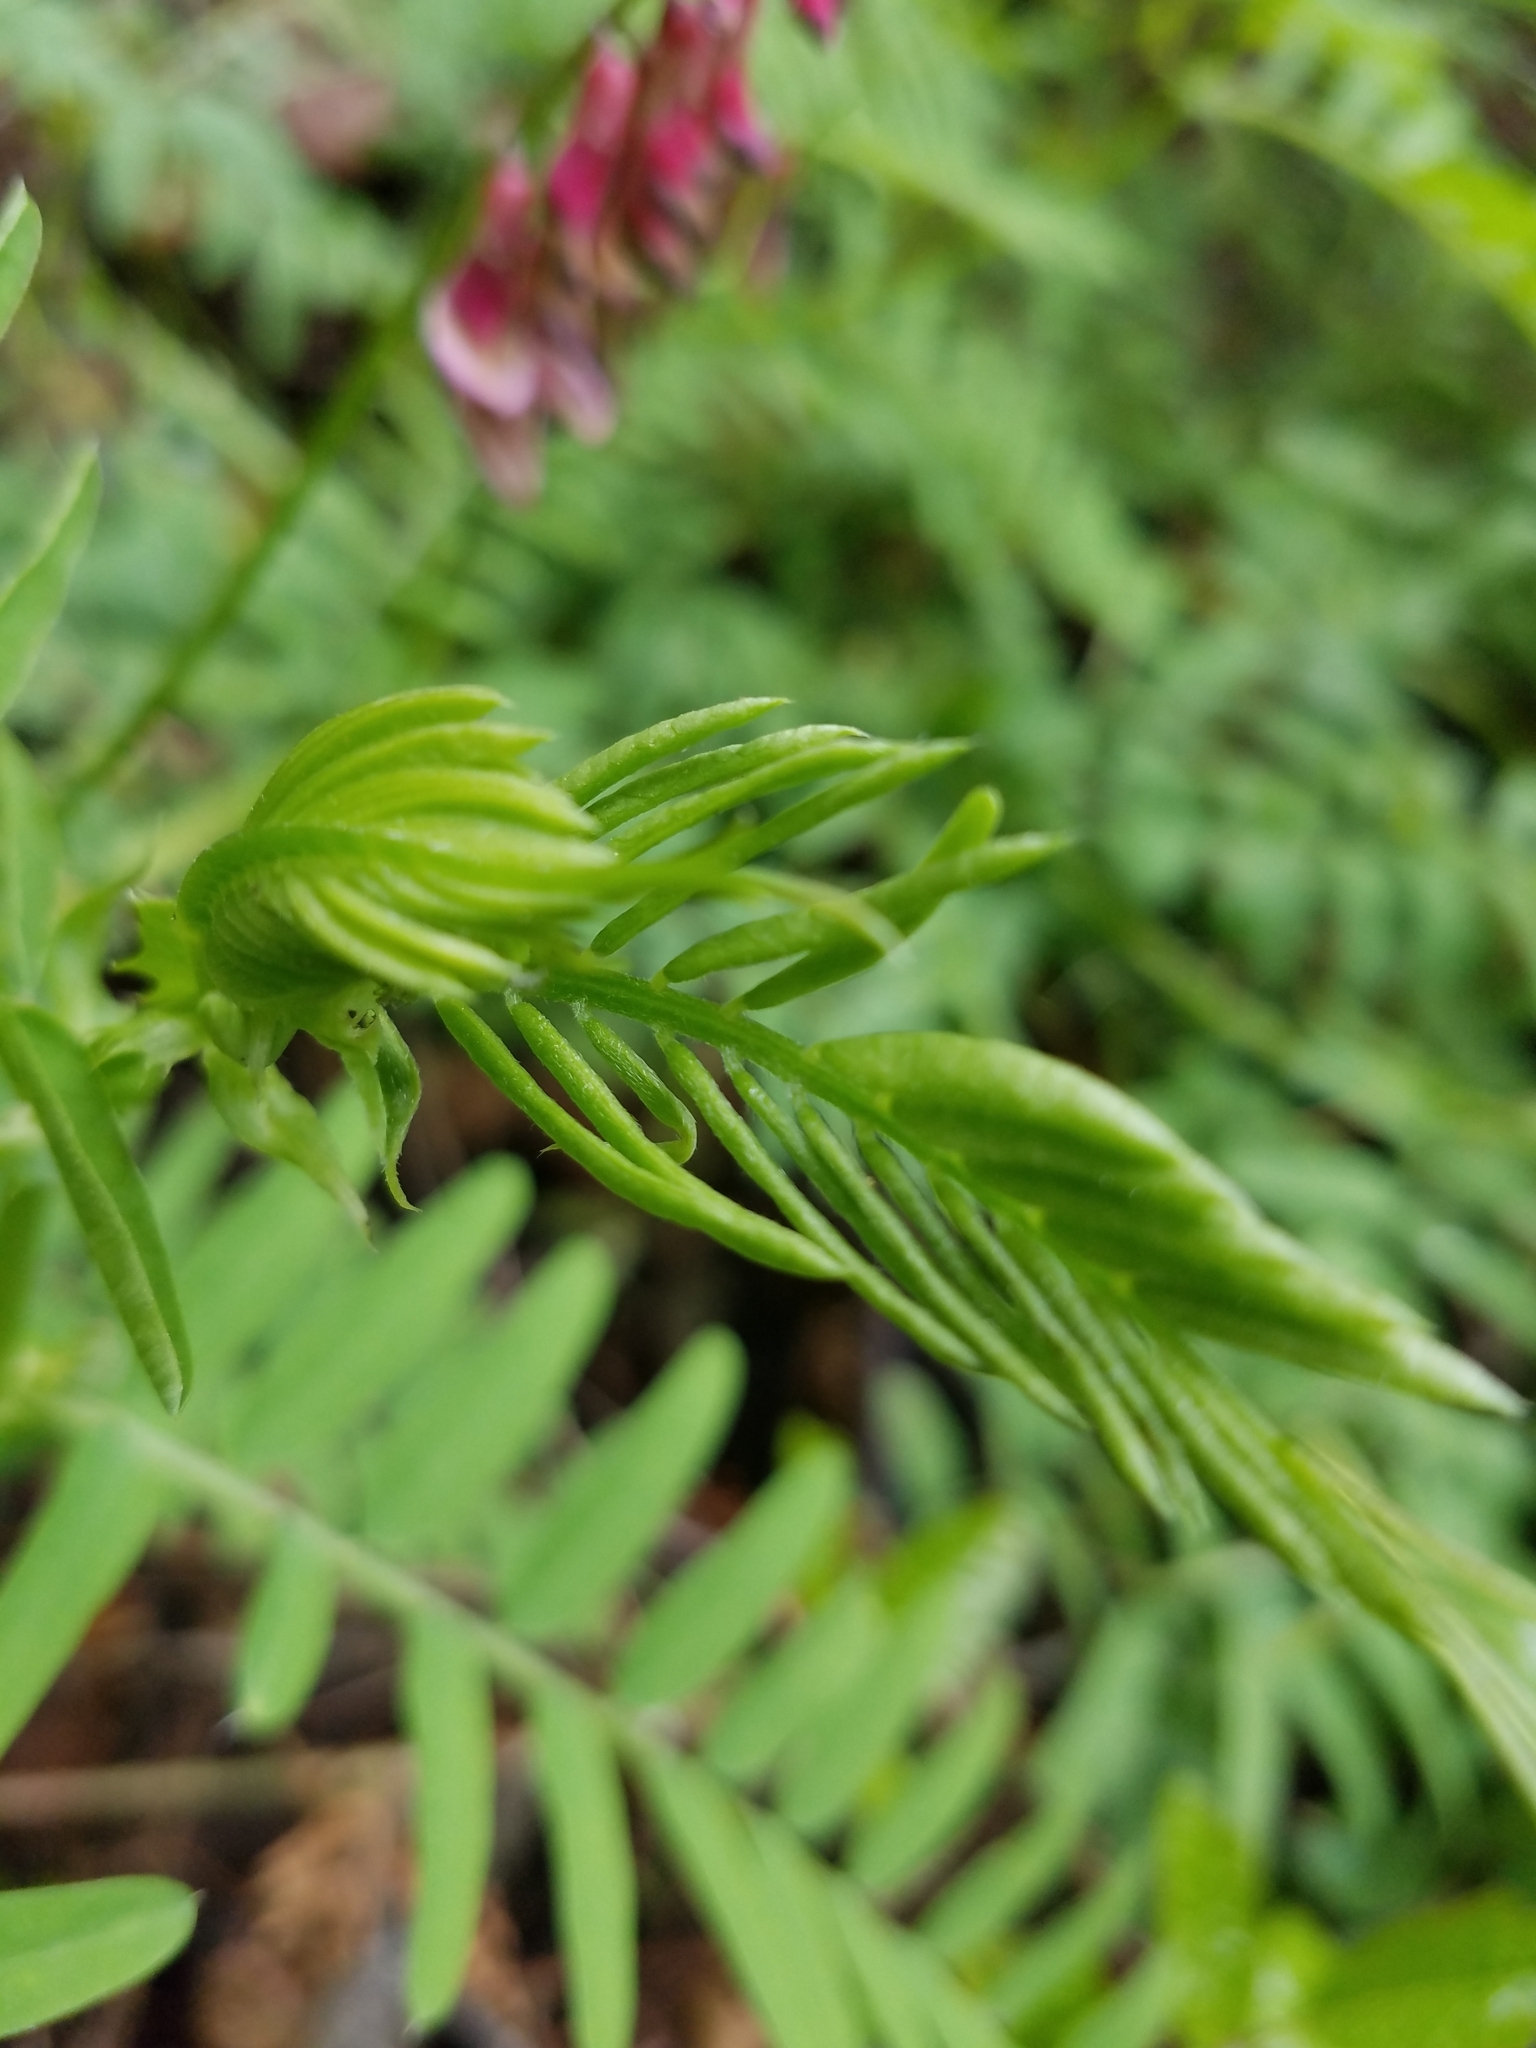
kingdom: Plantae
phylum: Tracheophyta
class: Magnoliopsida
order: Fabales
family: Fabaceae
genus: Vicia
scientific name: Vicia
